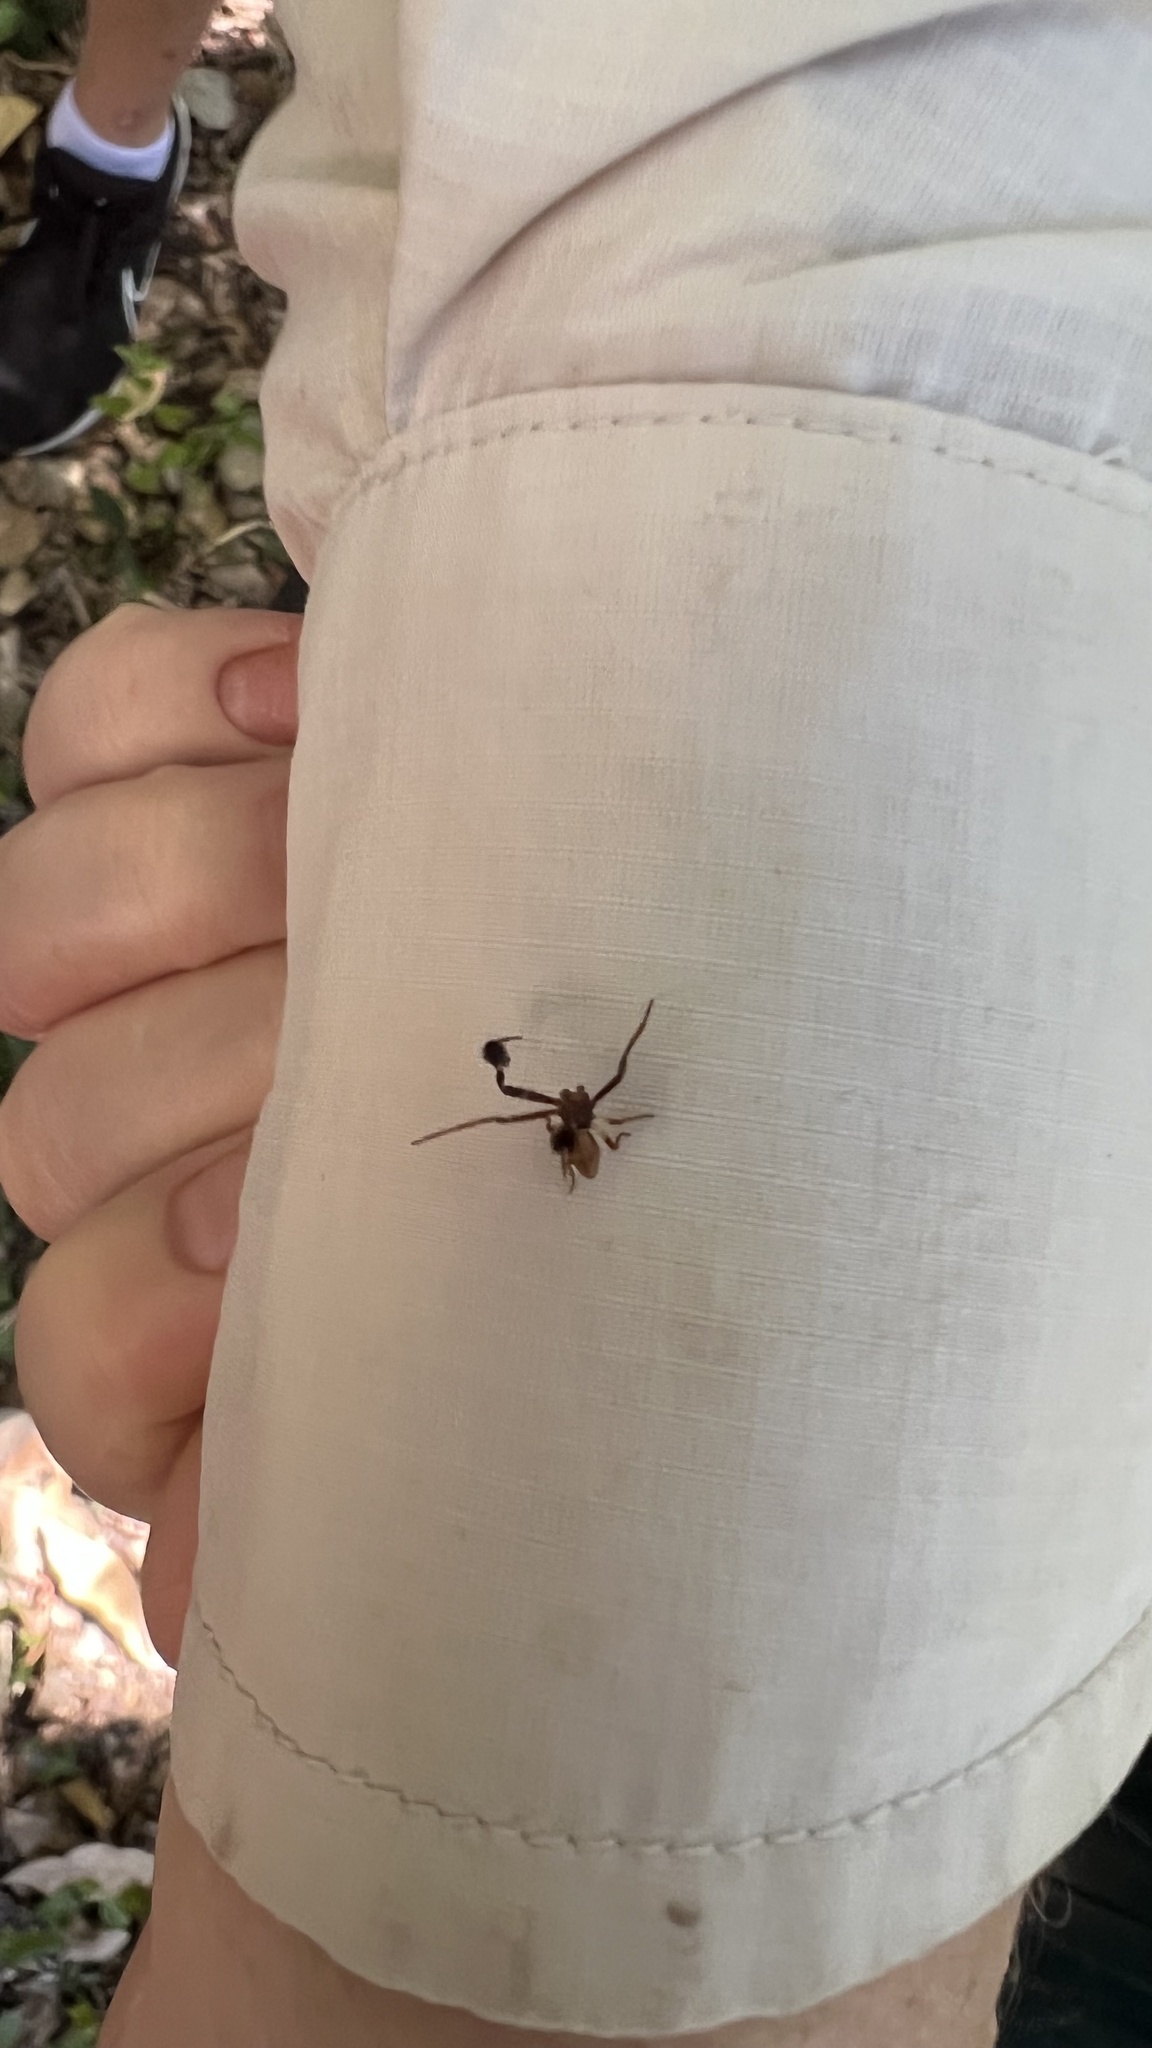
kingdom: Animalia
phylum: Arthropoda
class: Arachnida
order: Araneae
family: Thomisidae
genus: Stephanopis
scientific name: Stephanopis barbipes
